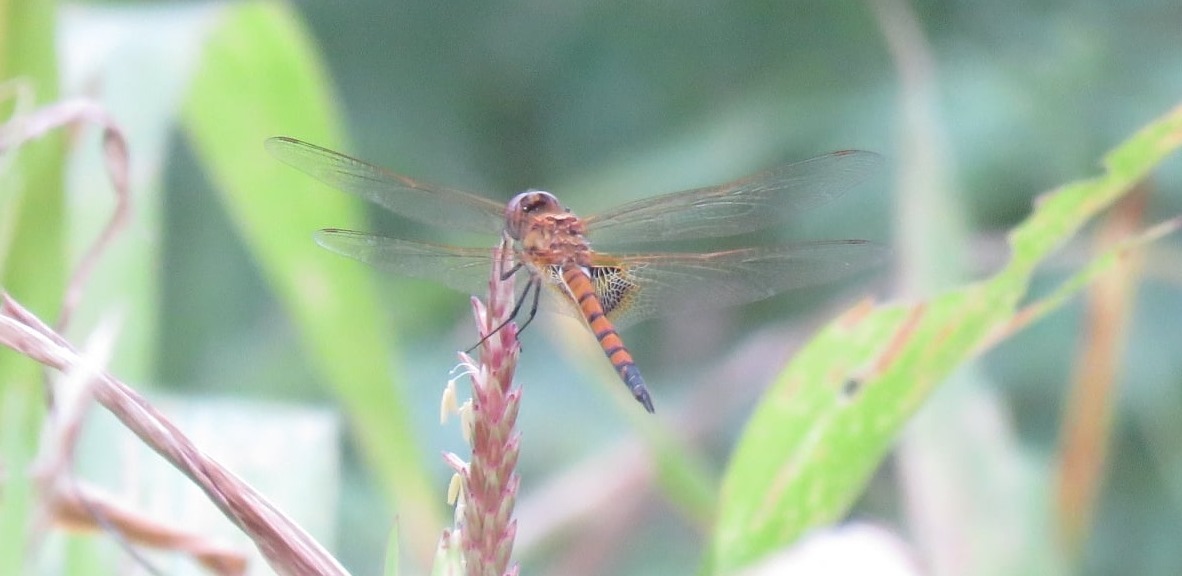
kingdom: Animalia
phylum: Arthropoda
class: Insecta
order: Odonata
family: Libellulidae
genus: Tramea
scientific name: Tramea basilaris
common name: Keyhole glider
